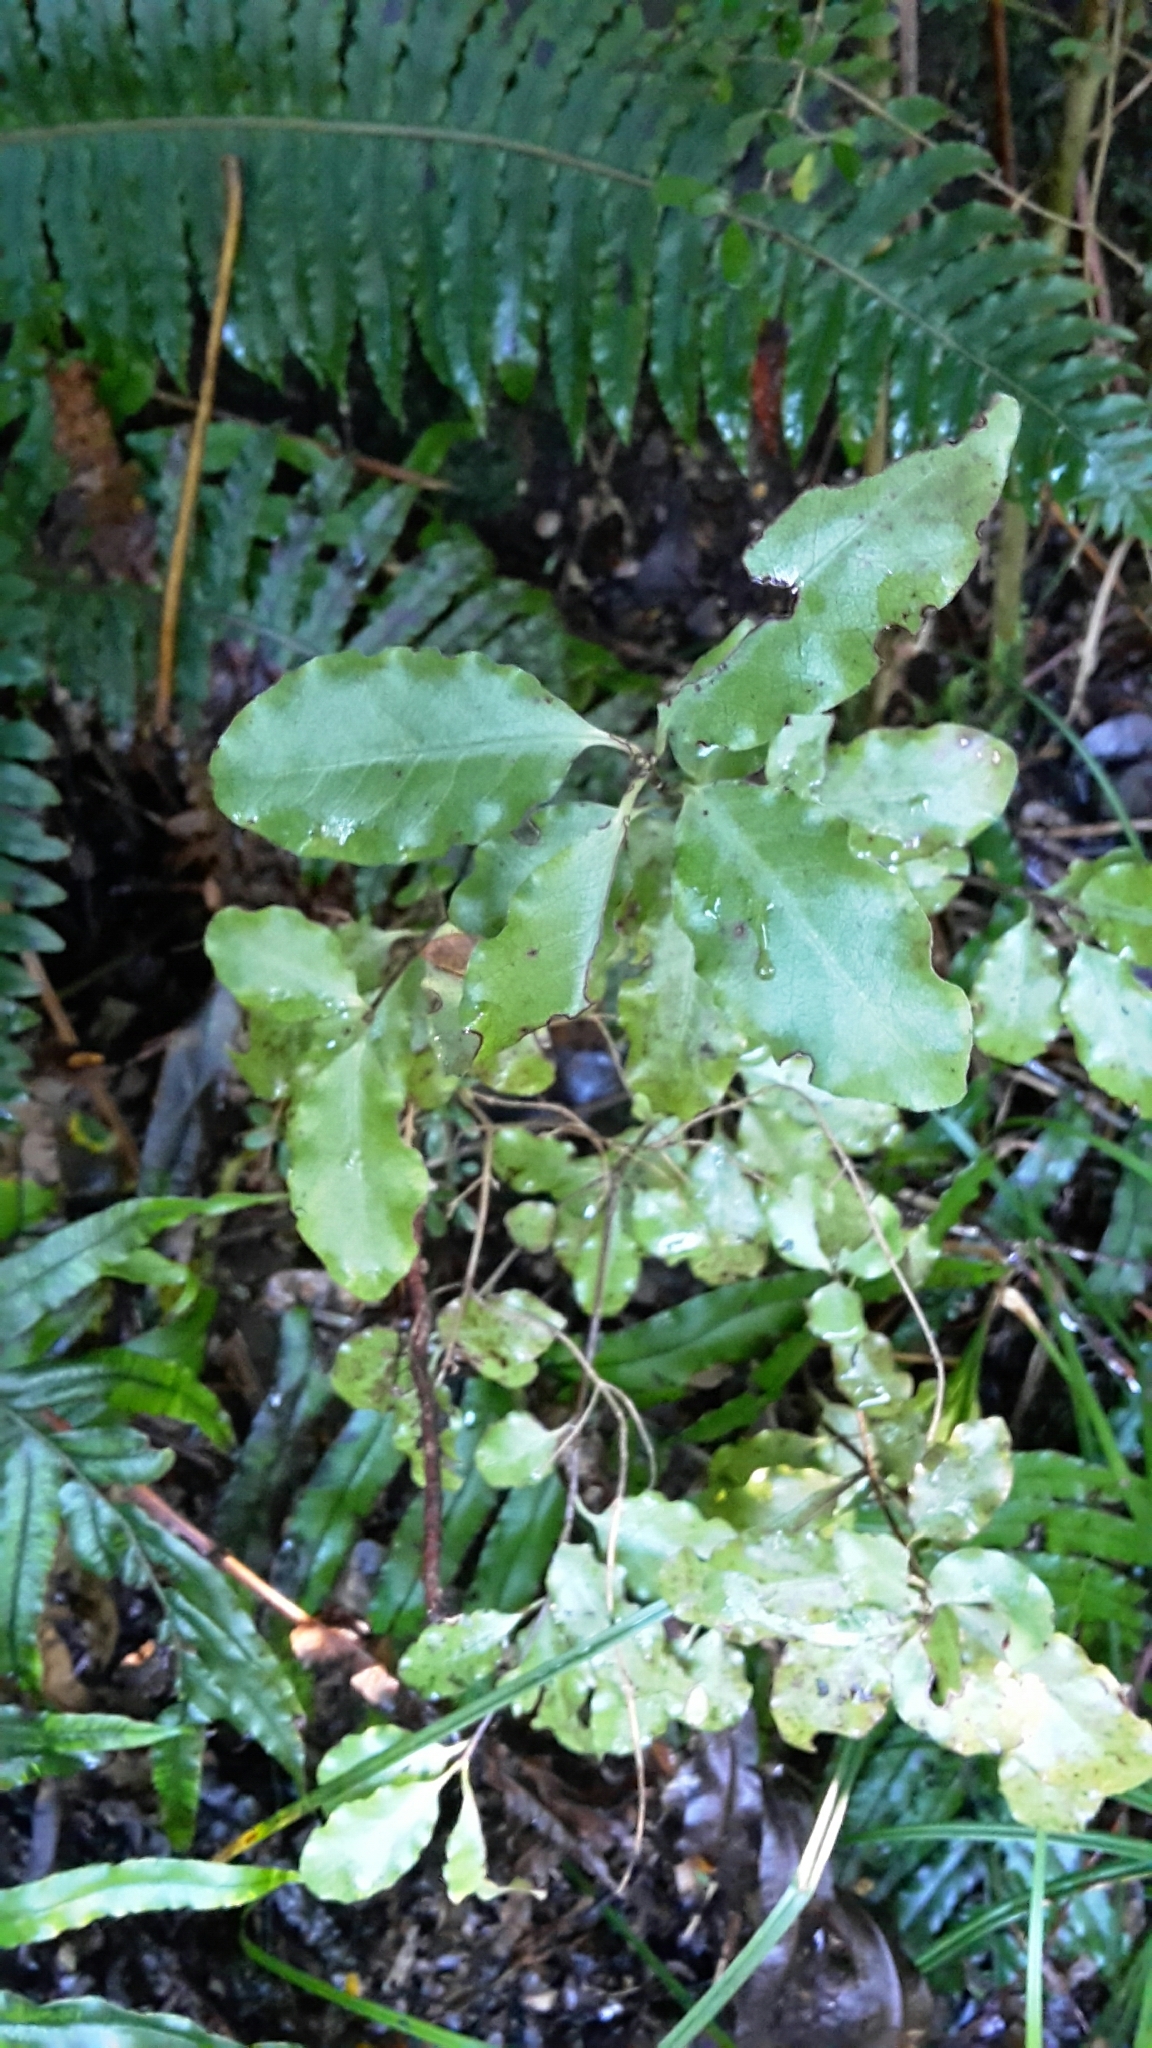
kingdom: Plantae
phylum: Tracheophyta
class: Magnoliopsida
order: Apiales
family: Pittosporaceae
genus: Pittosporum
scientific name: Pittosporum tenuifolium
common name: Kohuhu
